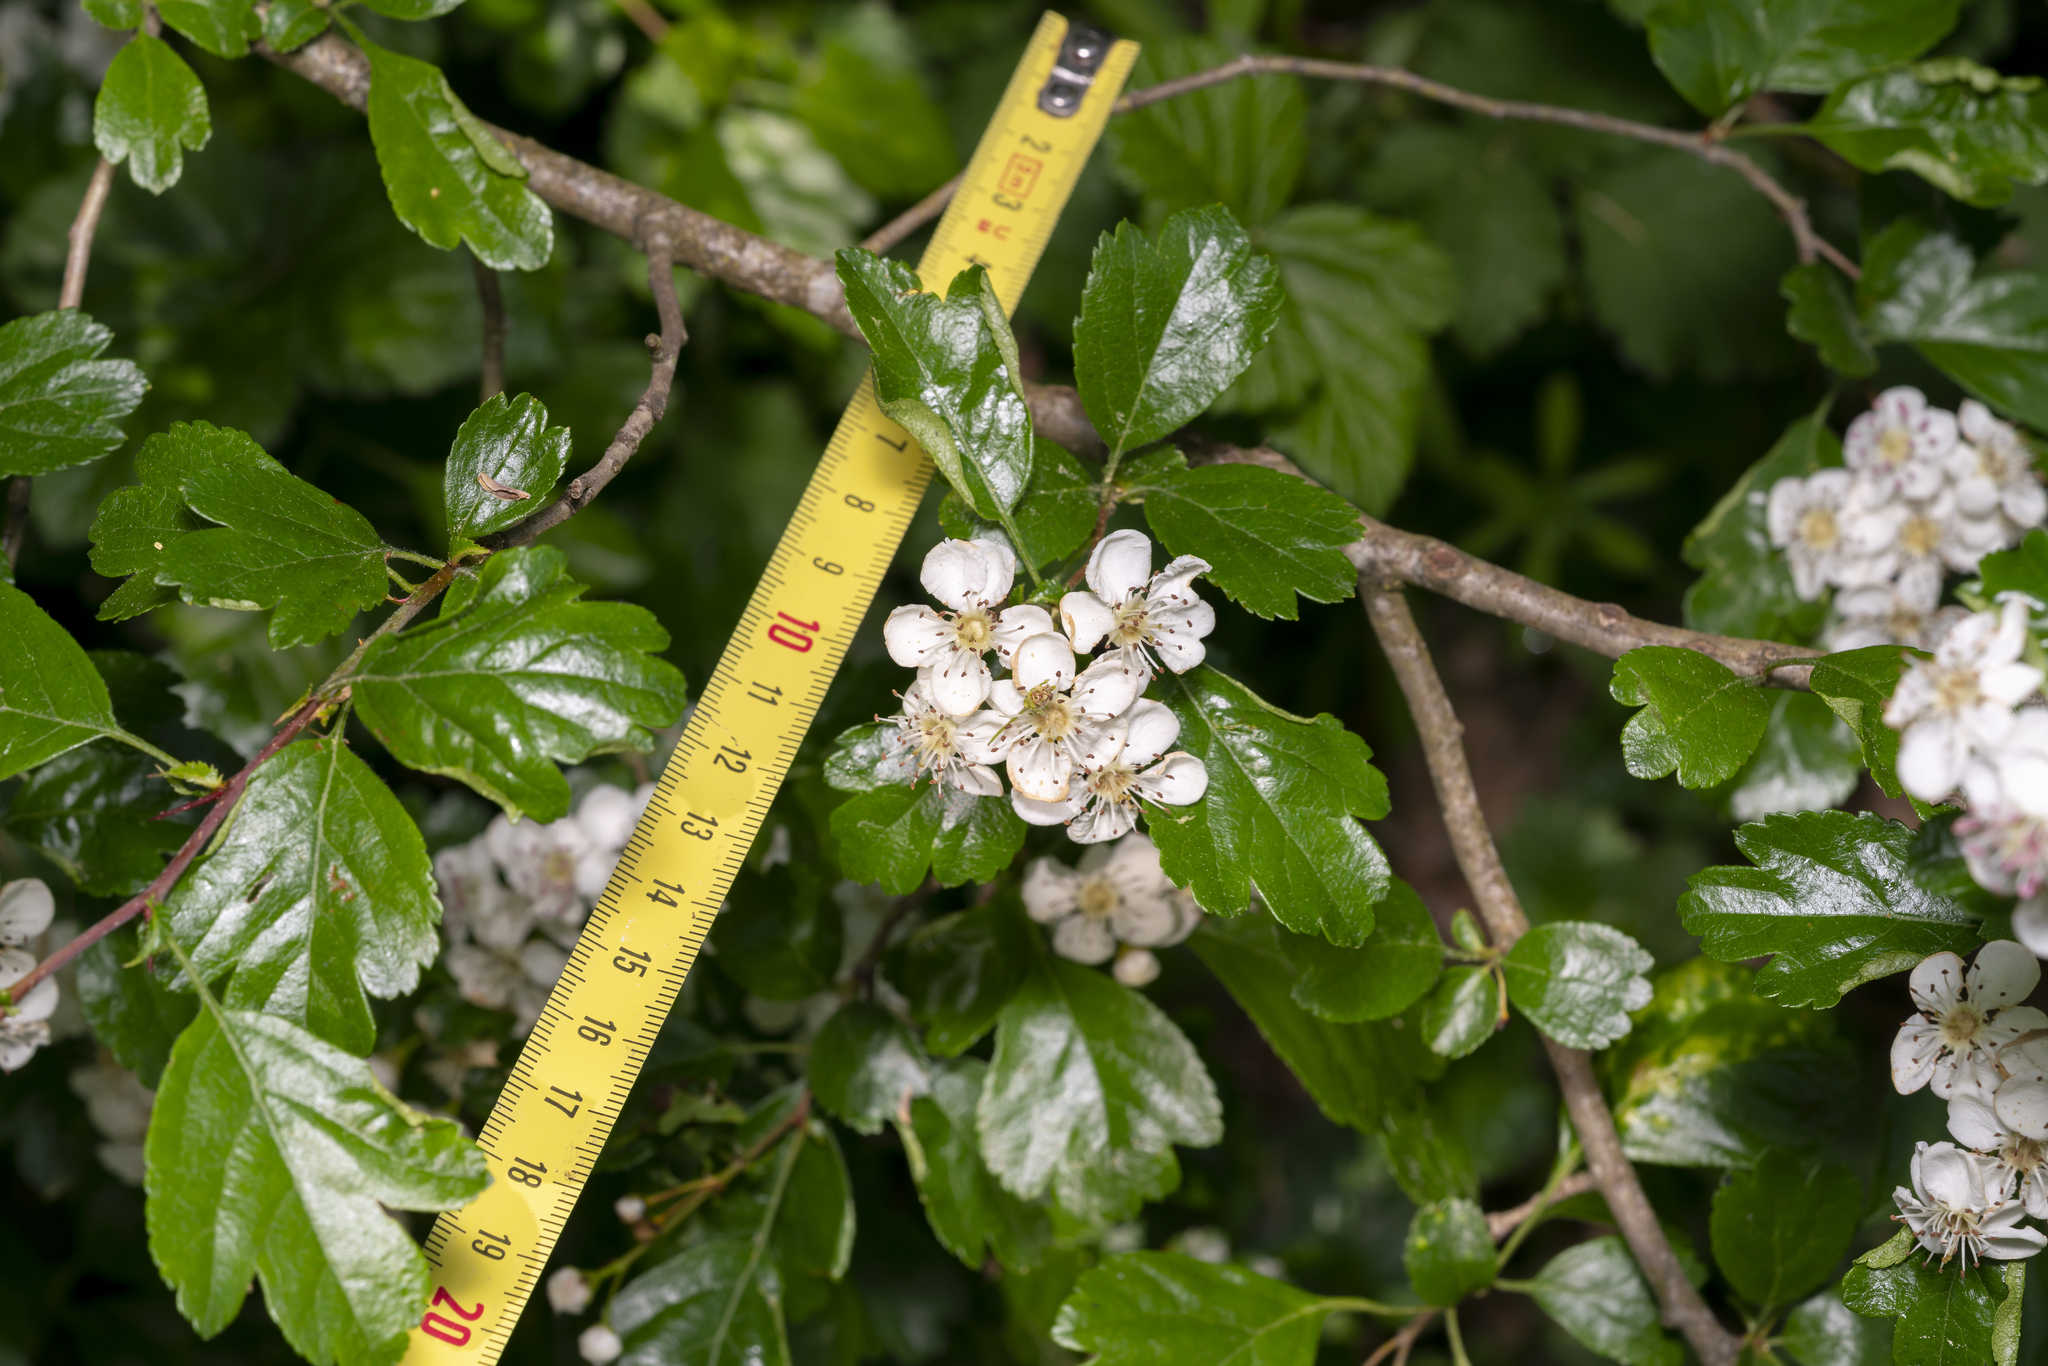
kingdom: Plantae
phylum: Tracheophyta
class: Magnoliopsida
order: Rosales
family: Rosaceae
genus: Crataegus
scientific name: Crataegus laevigata
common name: Midland hawthorn
